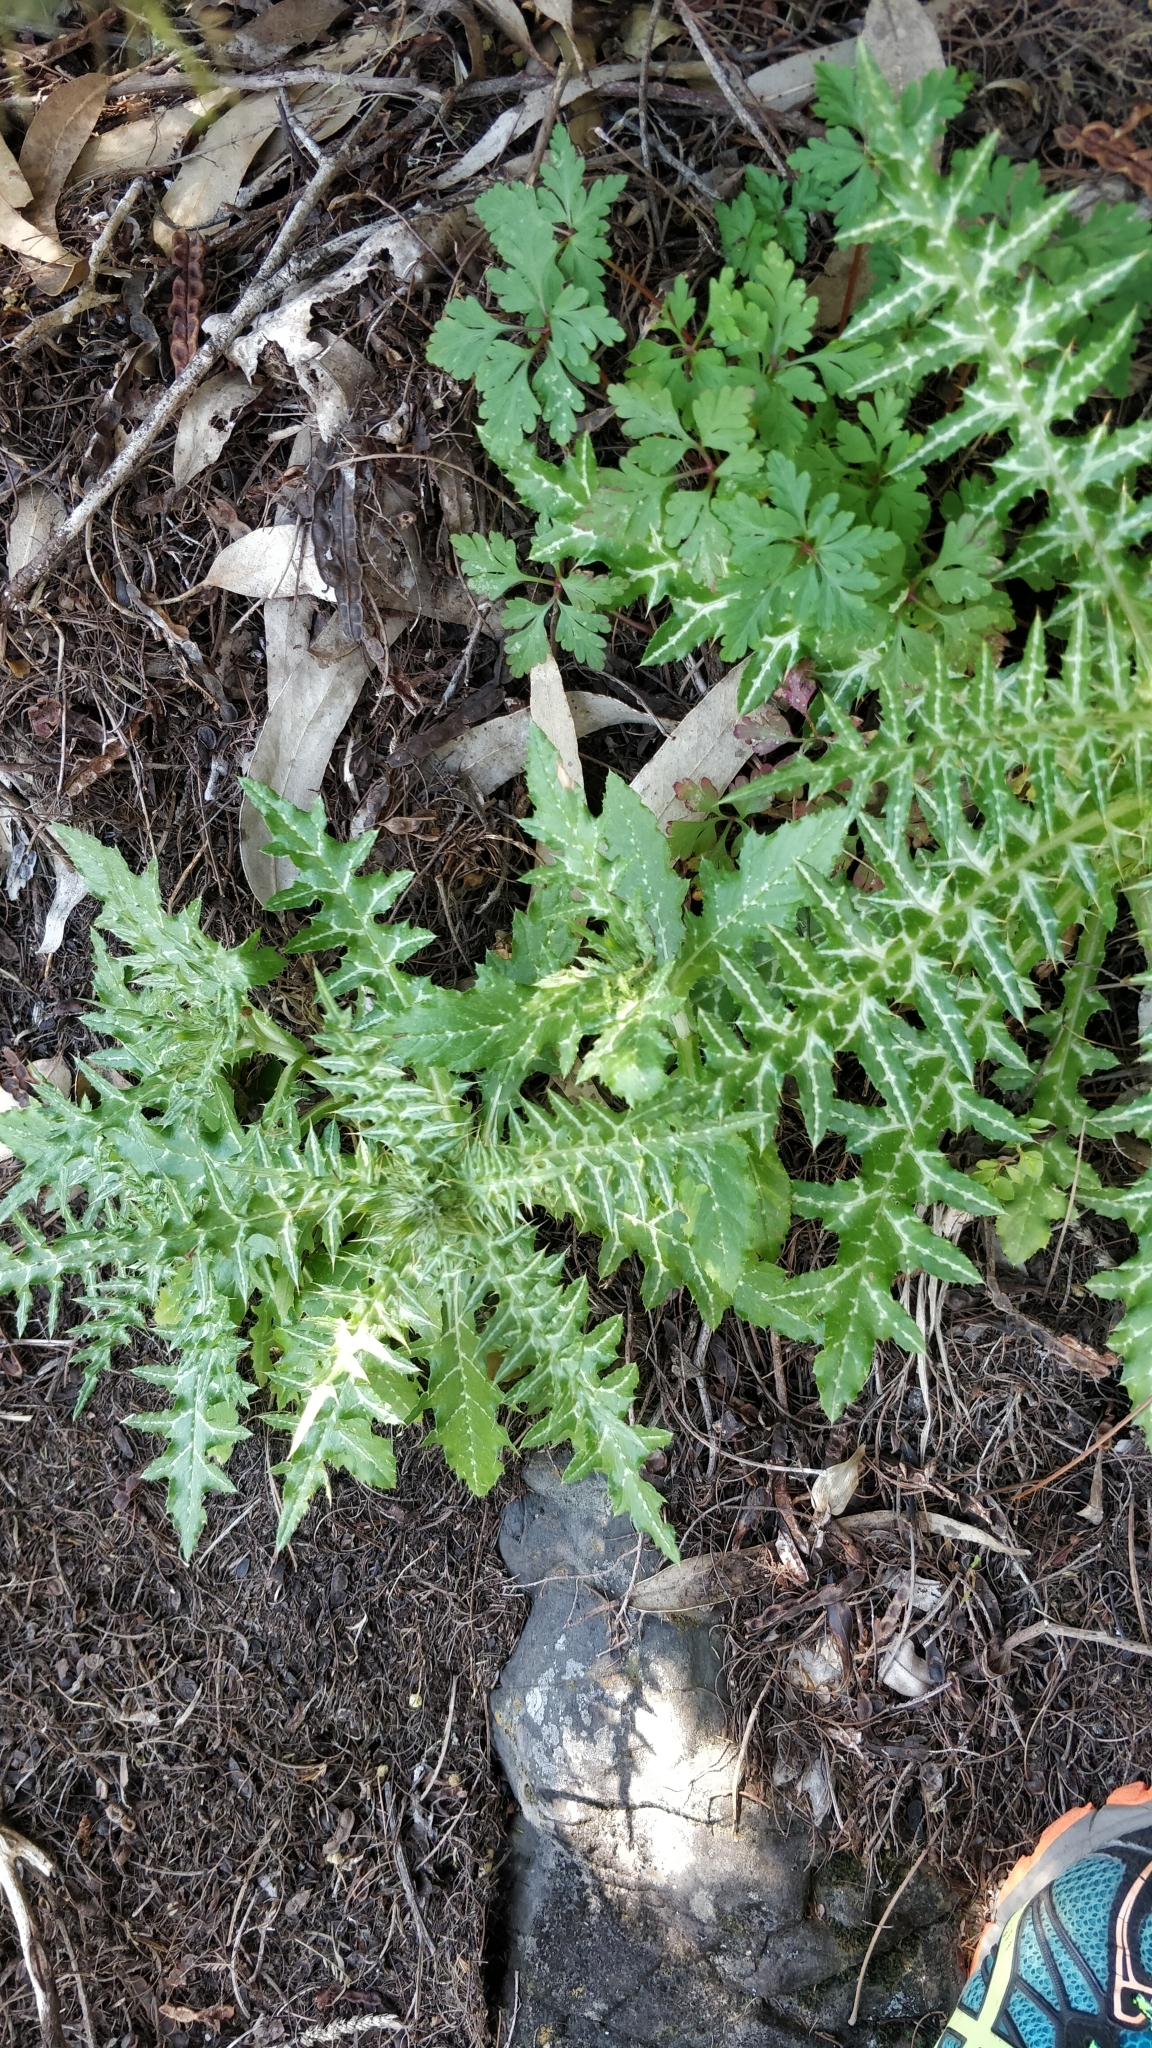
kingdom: Plantae
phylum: Tracheophyta
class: Magnoliopsida
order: Asterales
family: Asteraceae
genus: Galactites
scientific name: Galactites tomentosa
